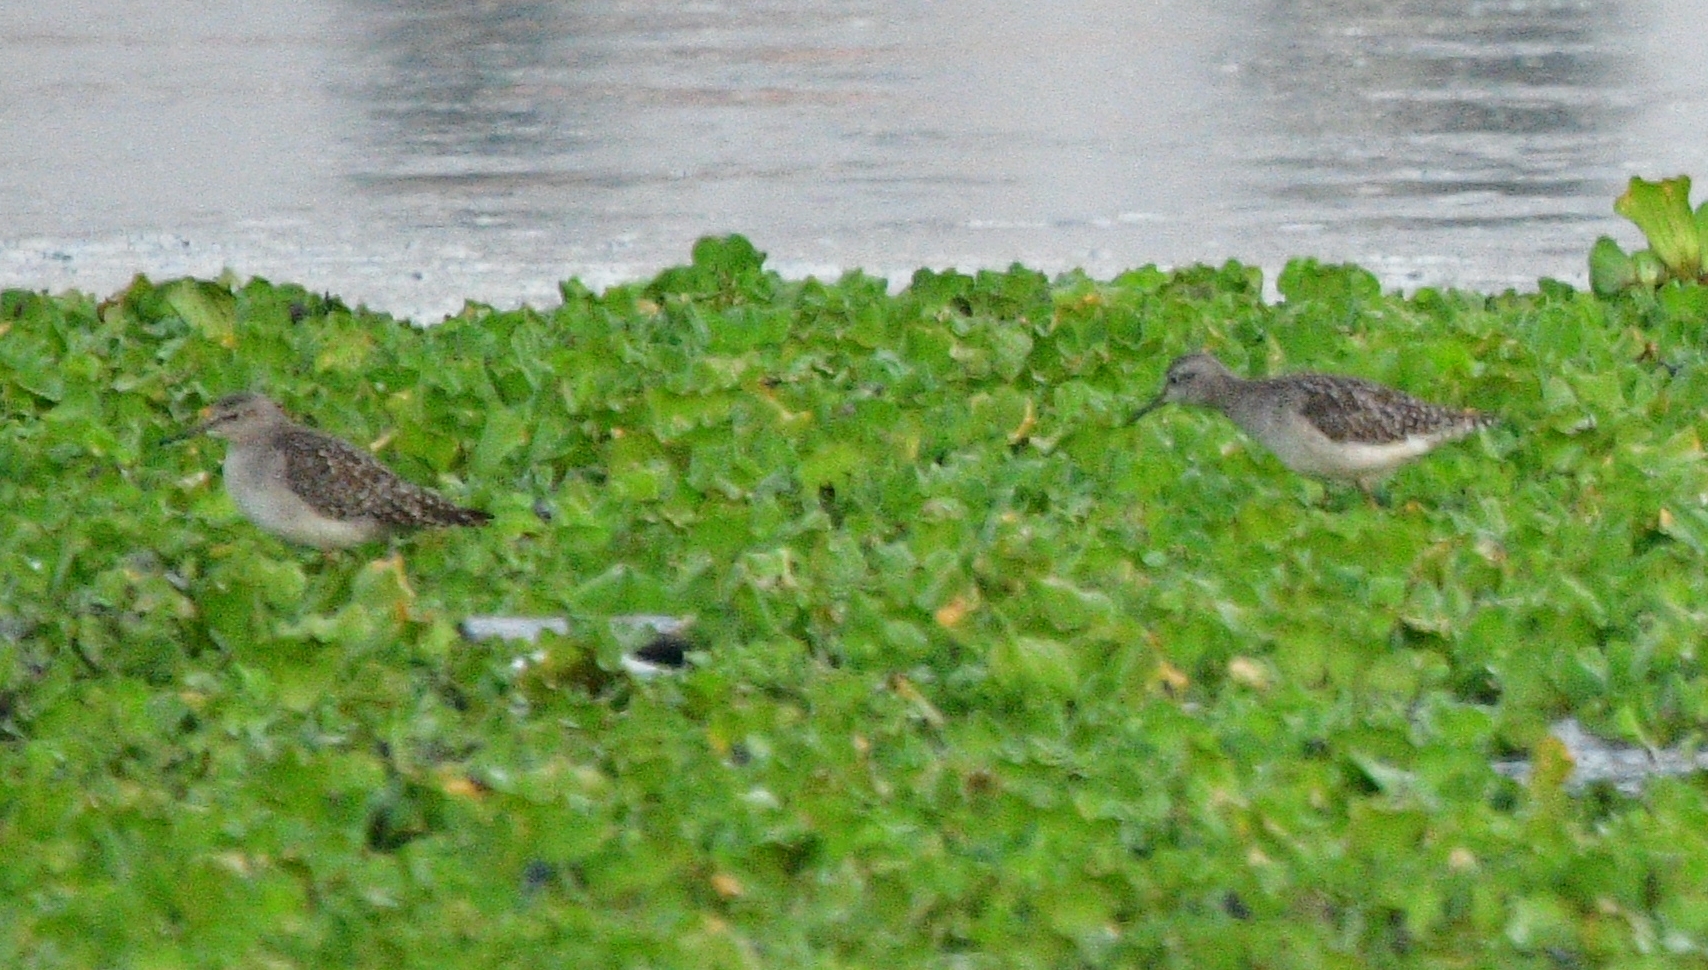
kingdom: Animalia
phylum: Chordata
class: Aves
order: Charadriiformes
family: Scolopacidae
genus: Tringa
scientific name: Tringa glareola
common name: Wood sandpiper
